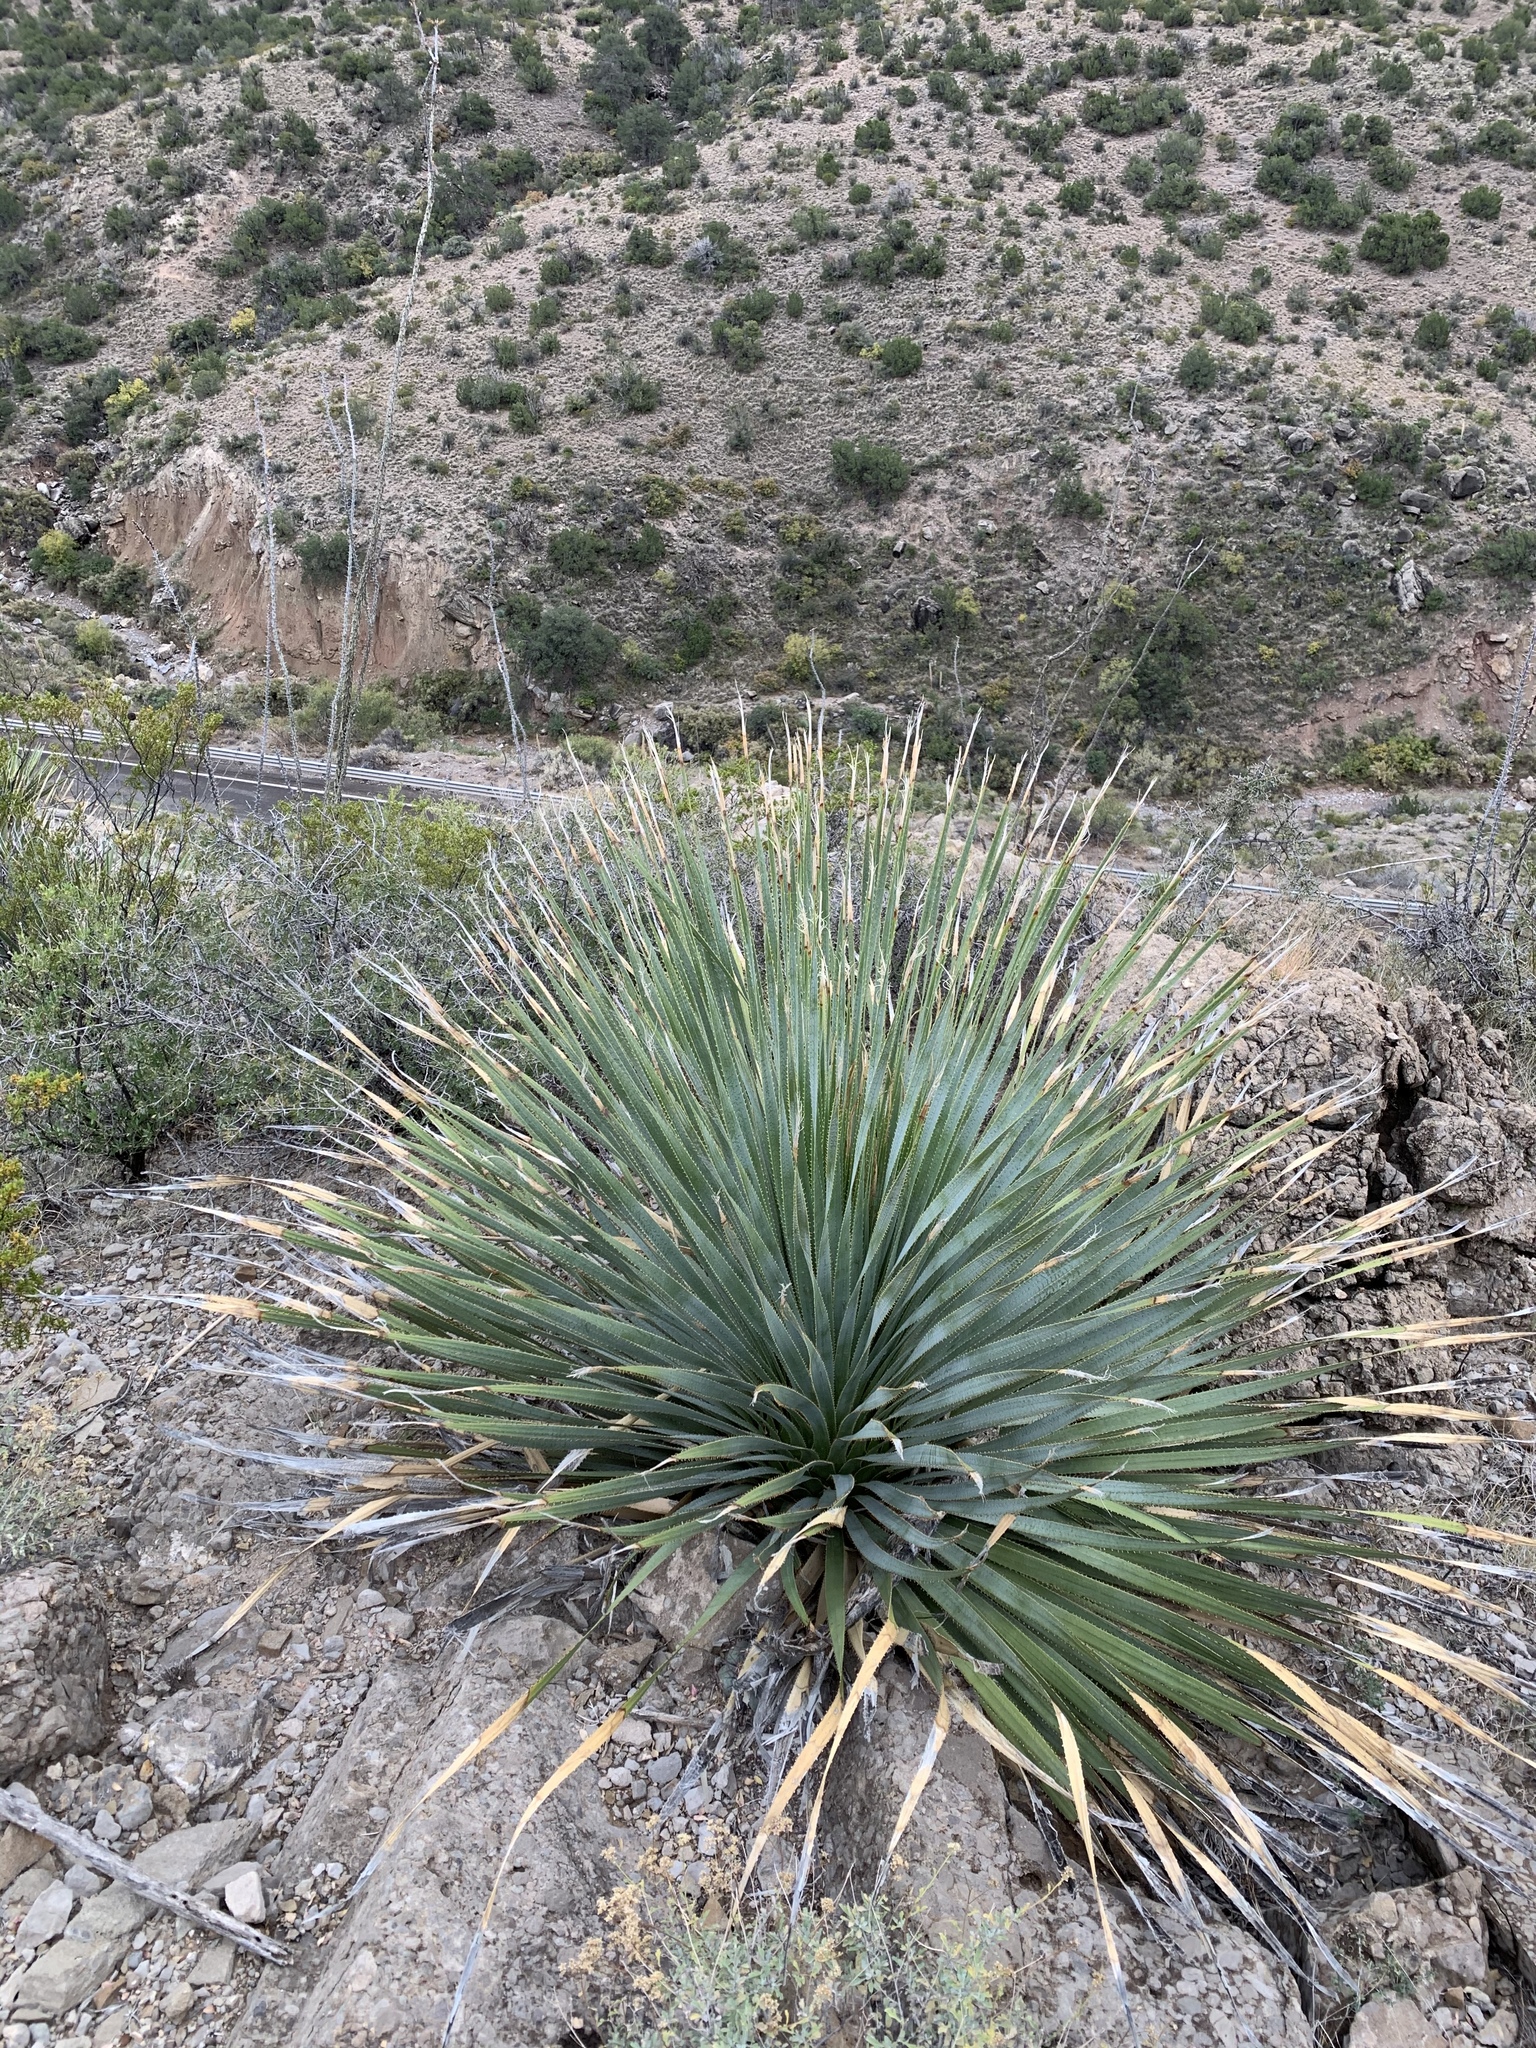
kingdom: Plantae
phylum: Tracheophyta
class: Liliopsida
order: Asparagales
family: Asparagaceae
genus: Dasylirion
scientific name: Dasylirion wheeleri
